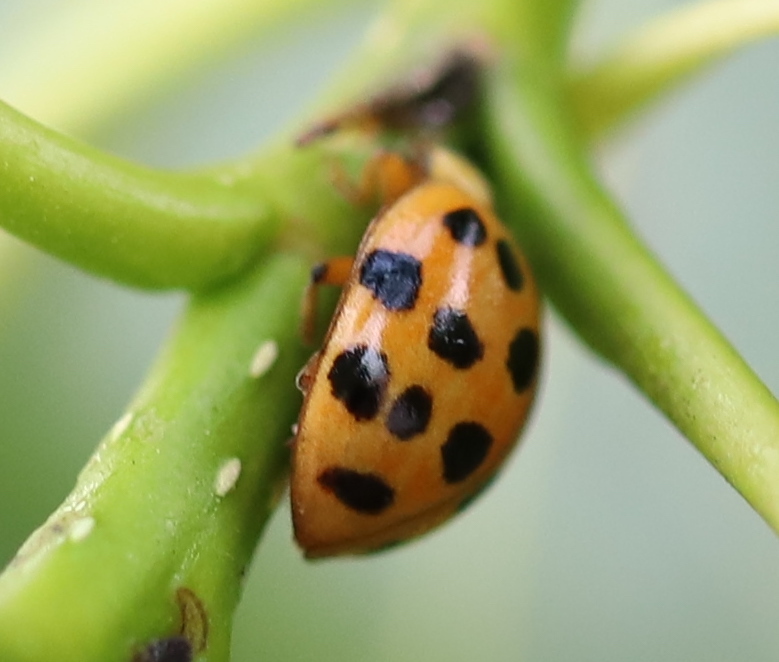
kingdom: Animalia
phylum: Arthropoda
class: Insecta
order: Coleoptera
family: Coccinellidae
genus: Harmonia
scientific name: Harmonia axyridis
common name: Harlequin ladybird
